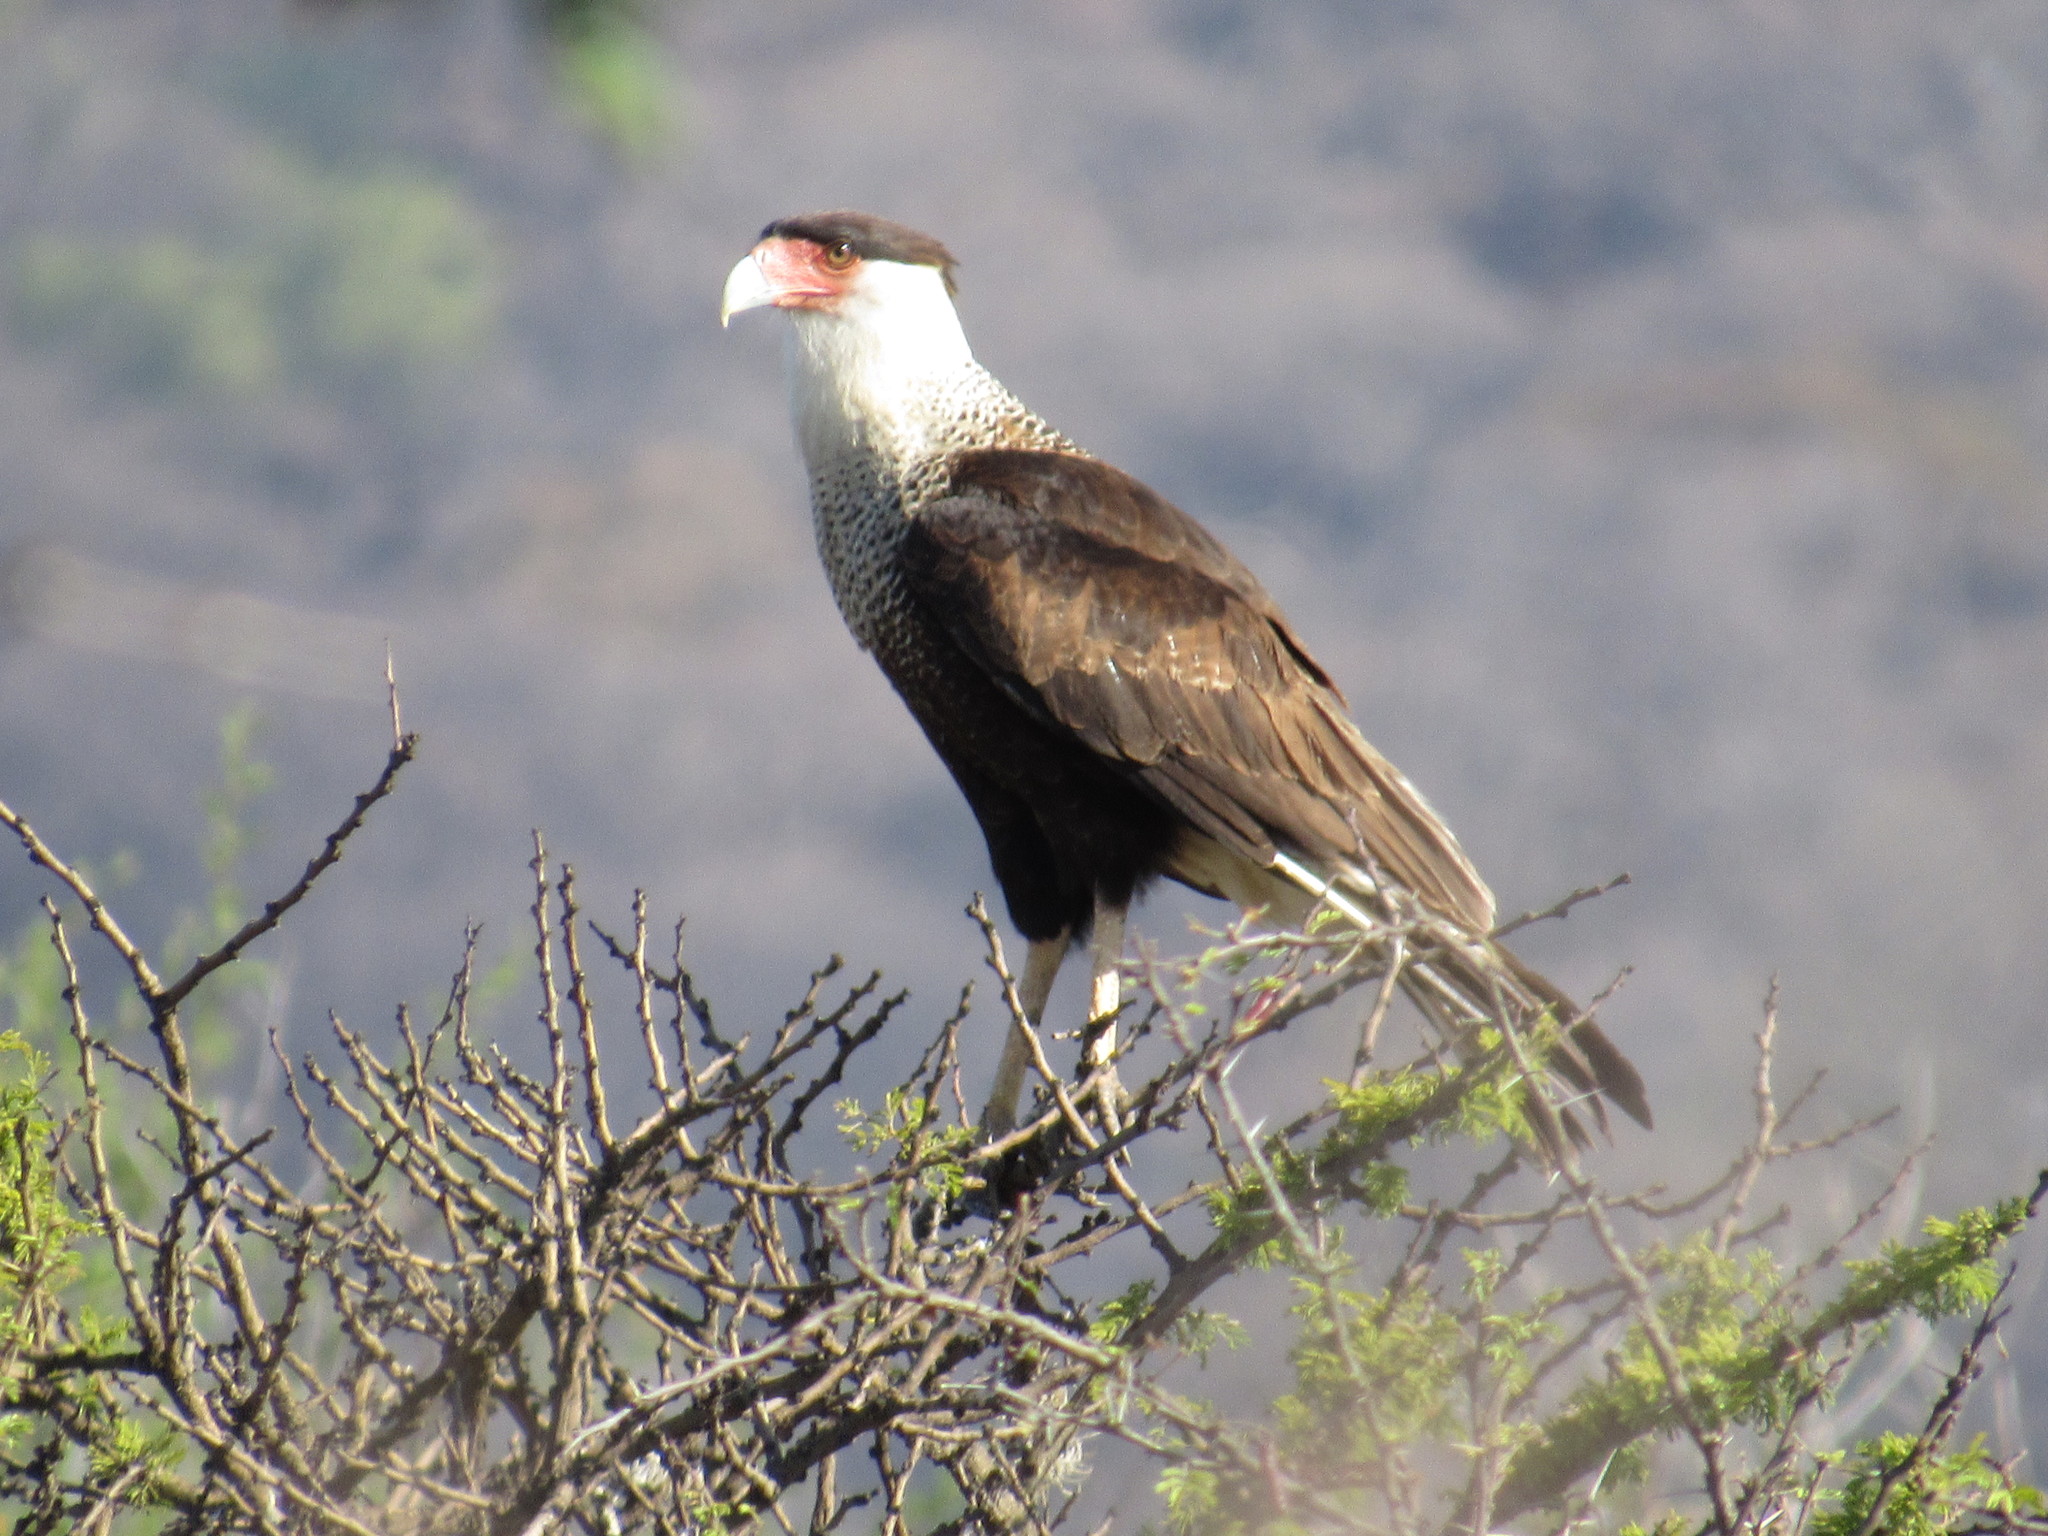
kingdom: Animalia
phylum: Chordata
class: Aves
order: Falconiformes
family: Falconidae
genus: Caracara
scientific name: Caracara plancus
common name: Southern caracara
